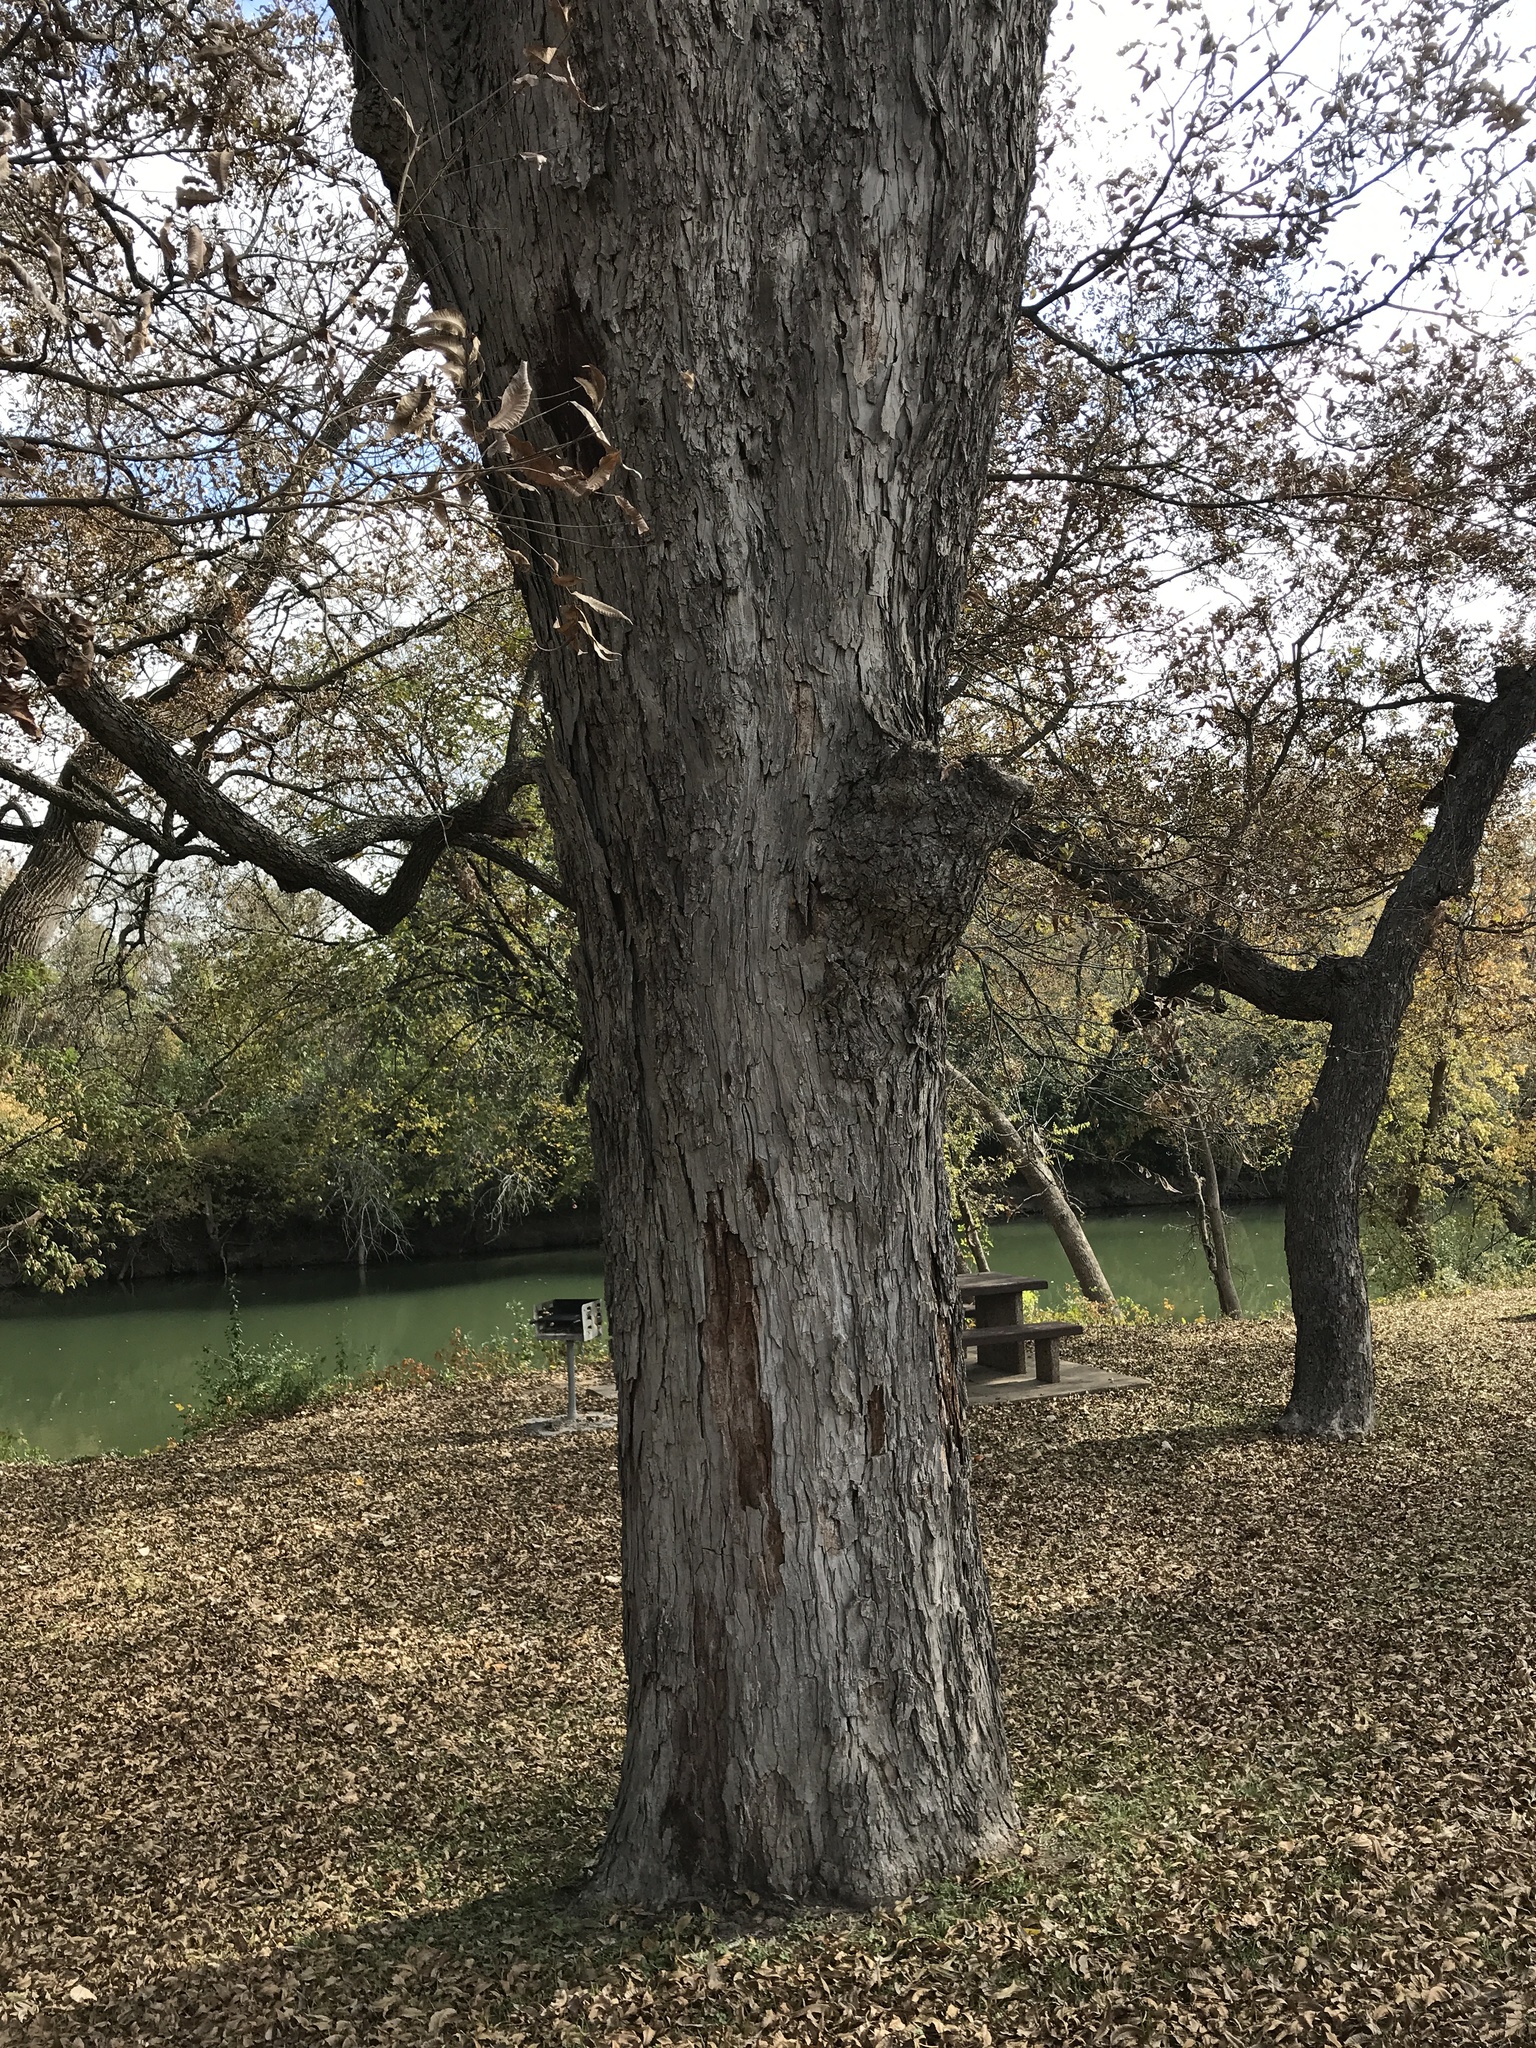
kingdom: Plantae
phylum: Tracheophyta
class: Magnoliopsida
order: Fagales
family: Juglandaceae
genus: Carya
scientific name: Carya illinoinensis
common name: Pecan
